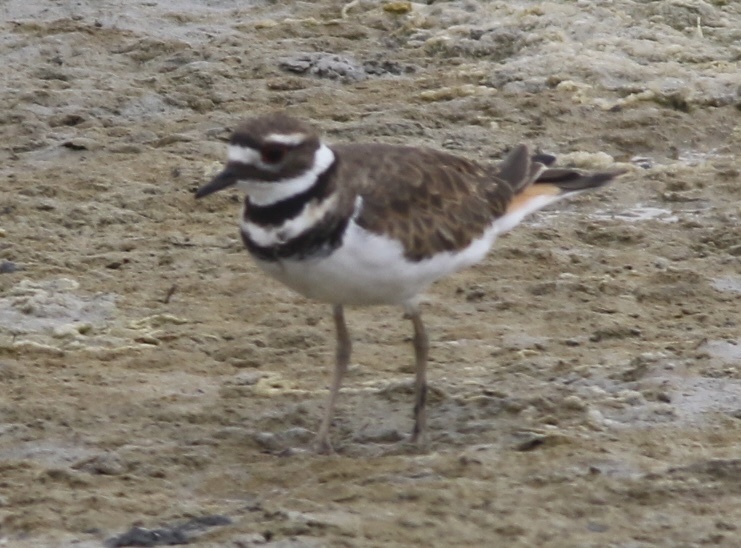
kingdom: Animalia
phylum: Chordata
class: Aves
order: Charadriiformes
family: Charadriidae
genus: Charadrius
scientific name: Charadrius vociferus
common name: Killdeer
